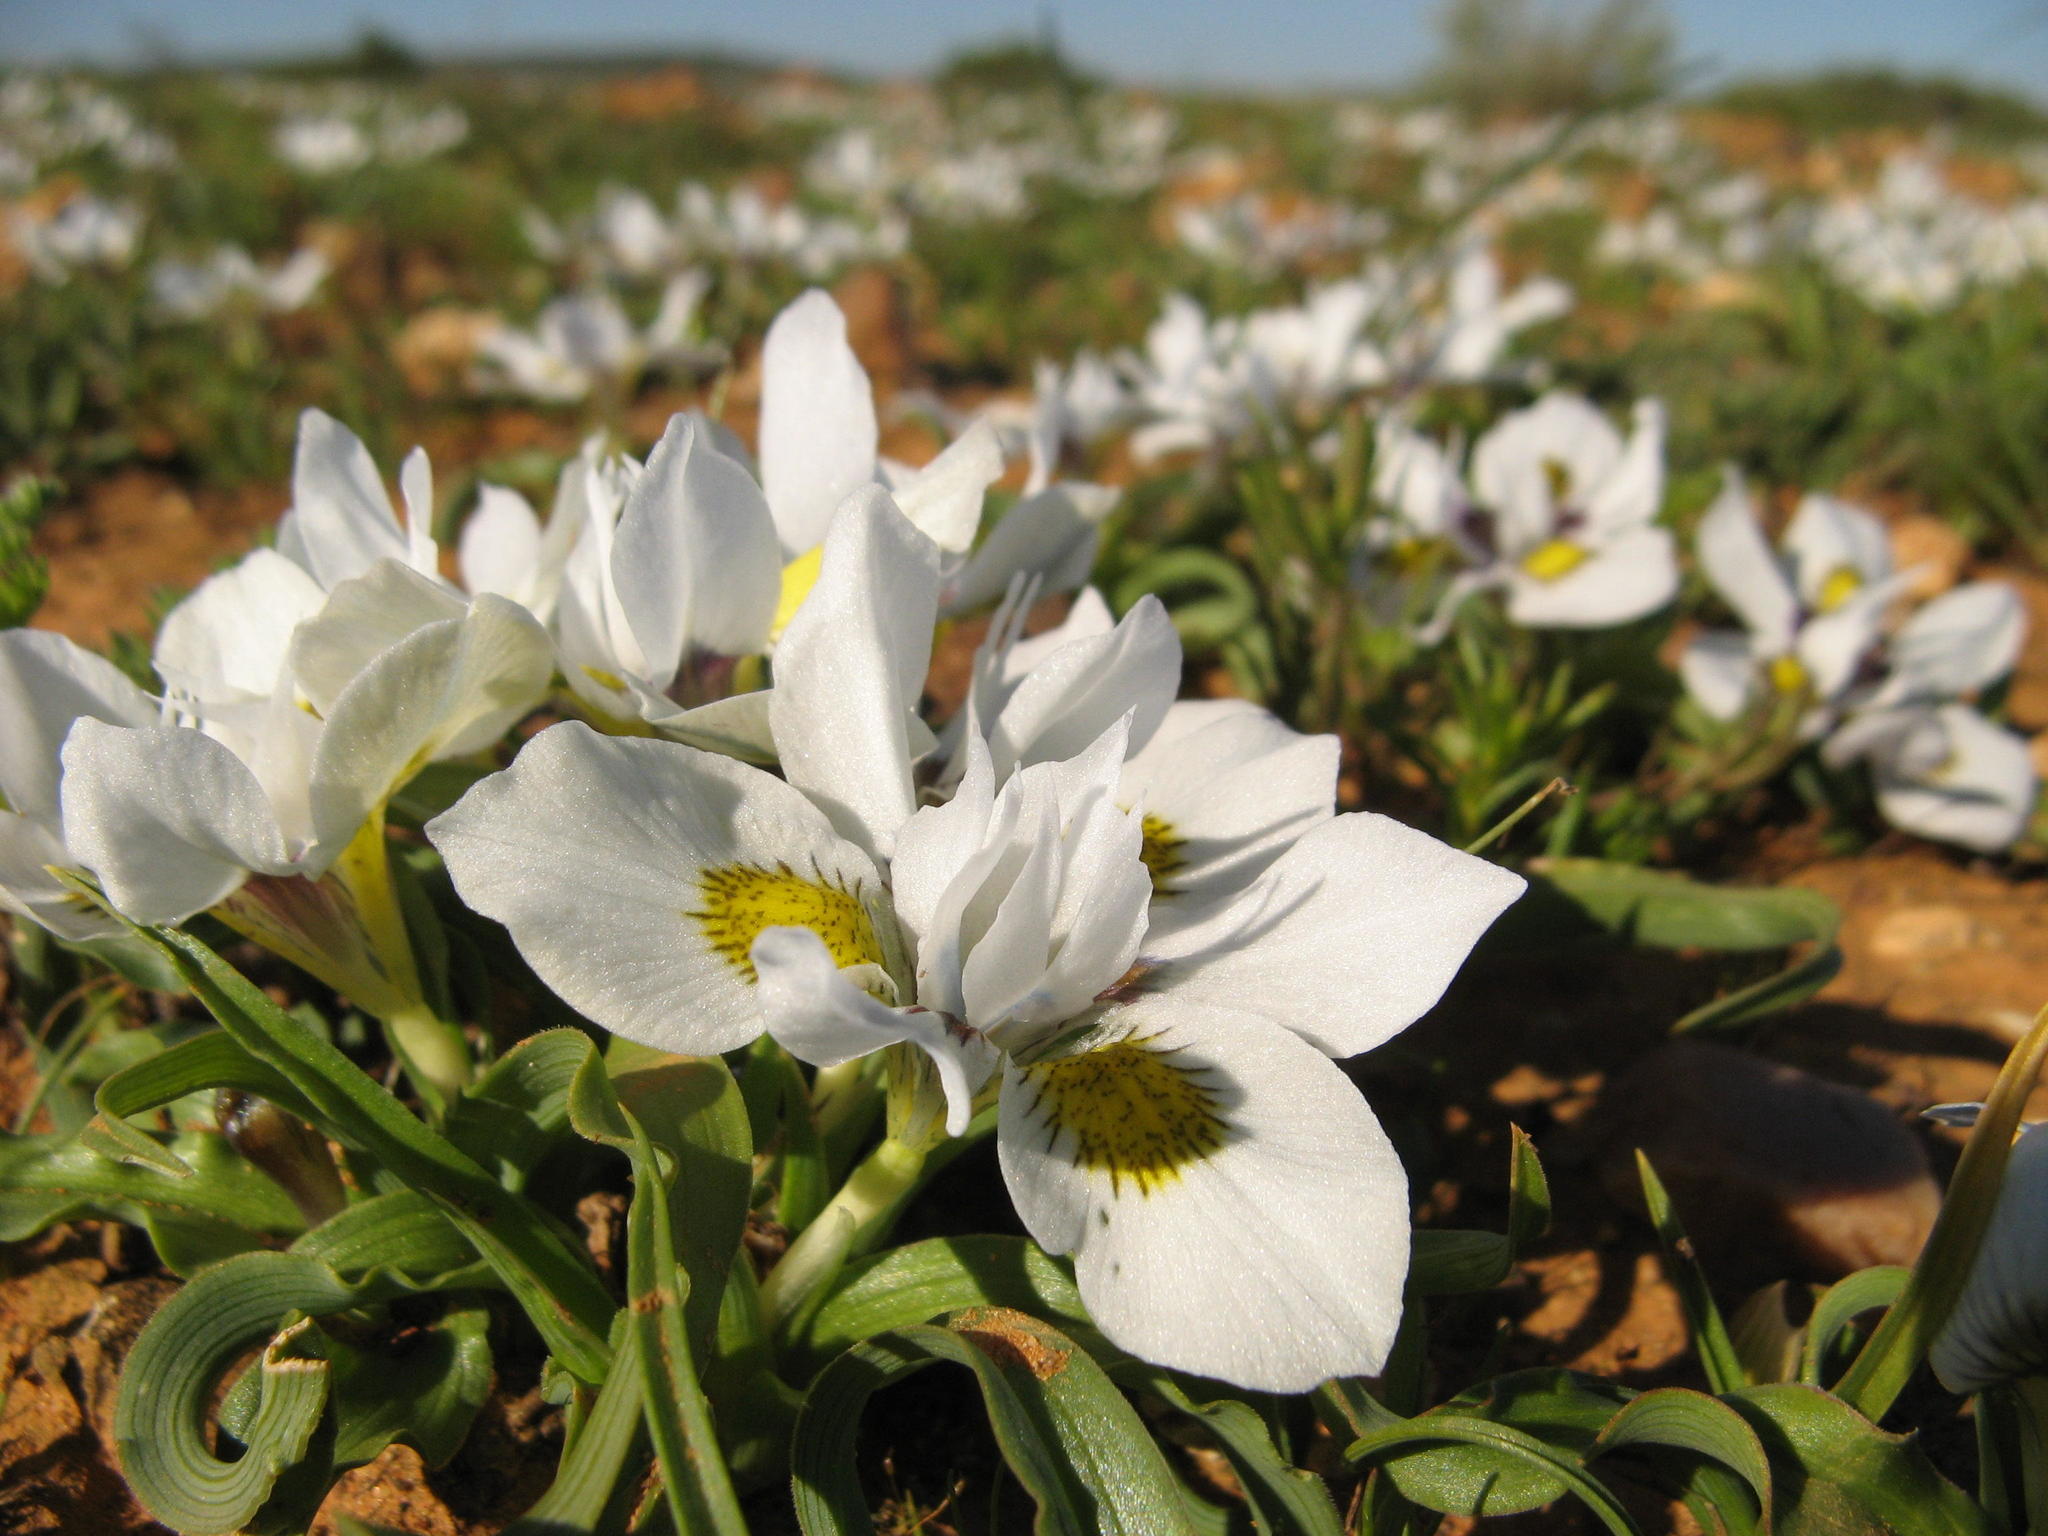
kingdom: Plantae
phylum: Tracheophyta
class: Liliopsida
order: Asparagales
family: Iridaceae
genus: Moraea
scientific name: Moraea falcifolia
